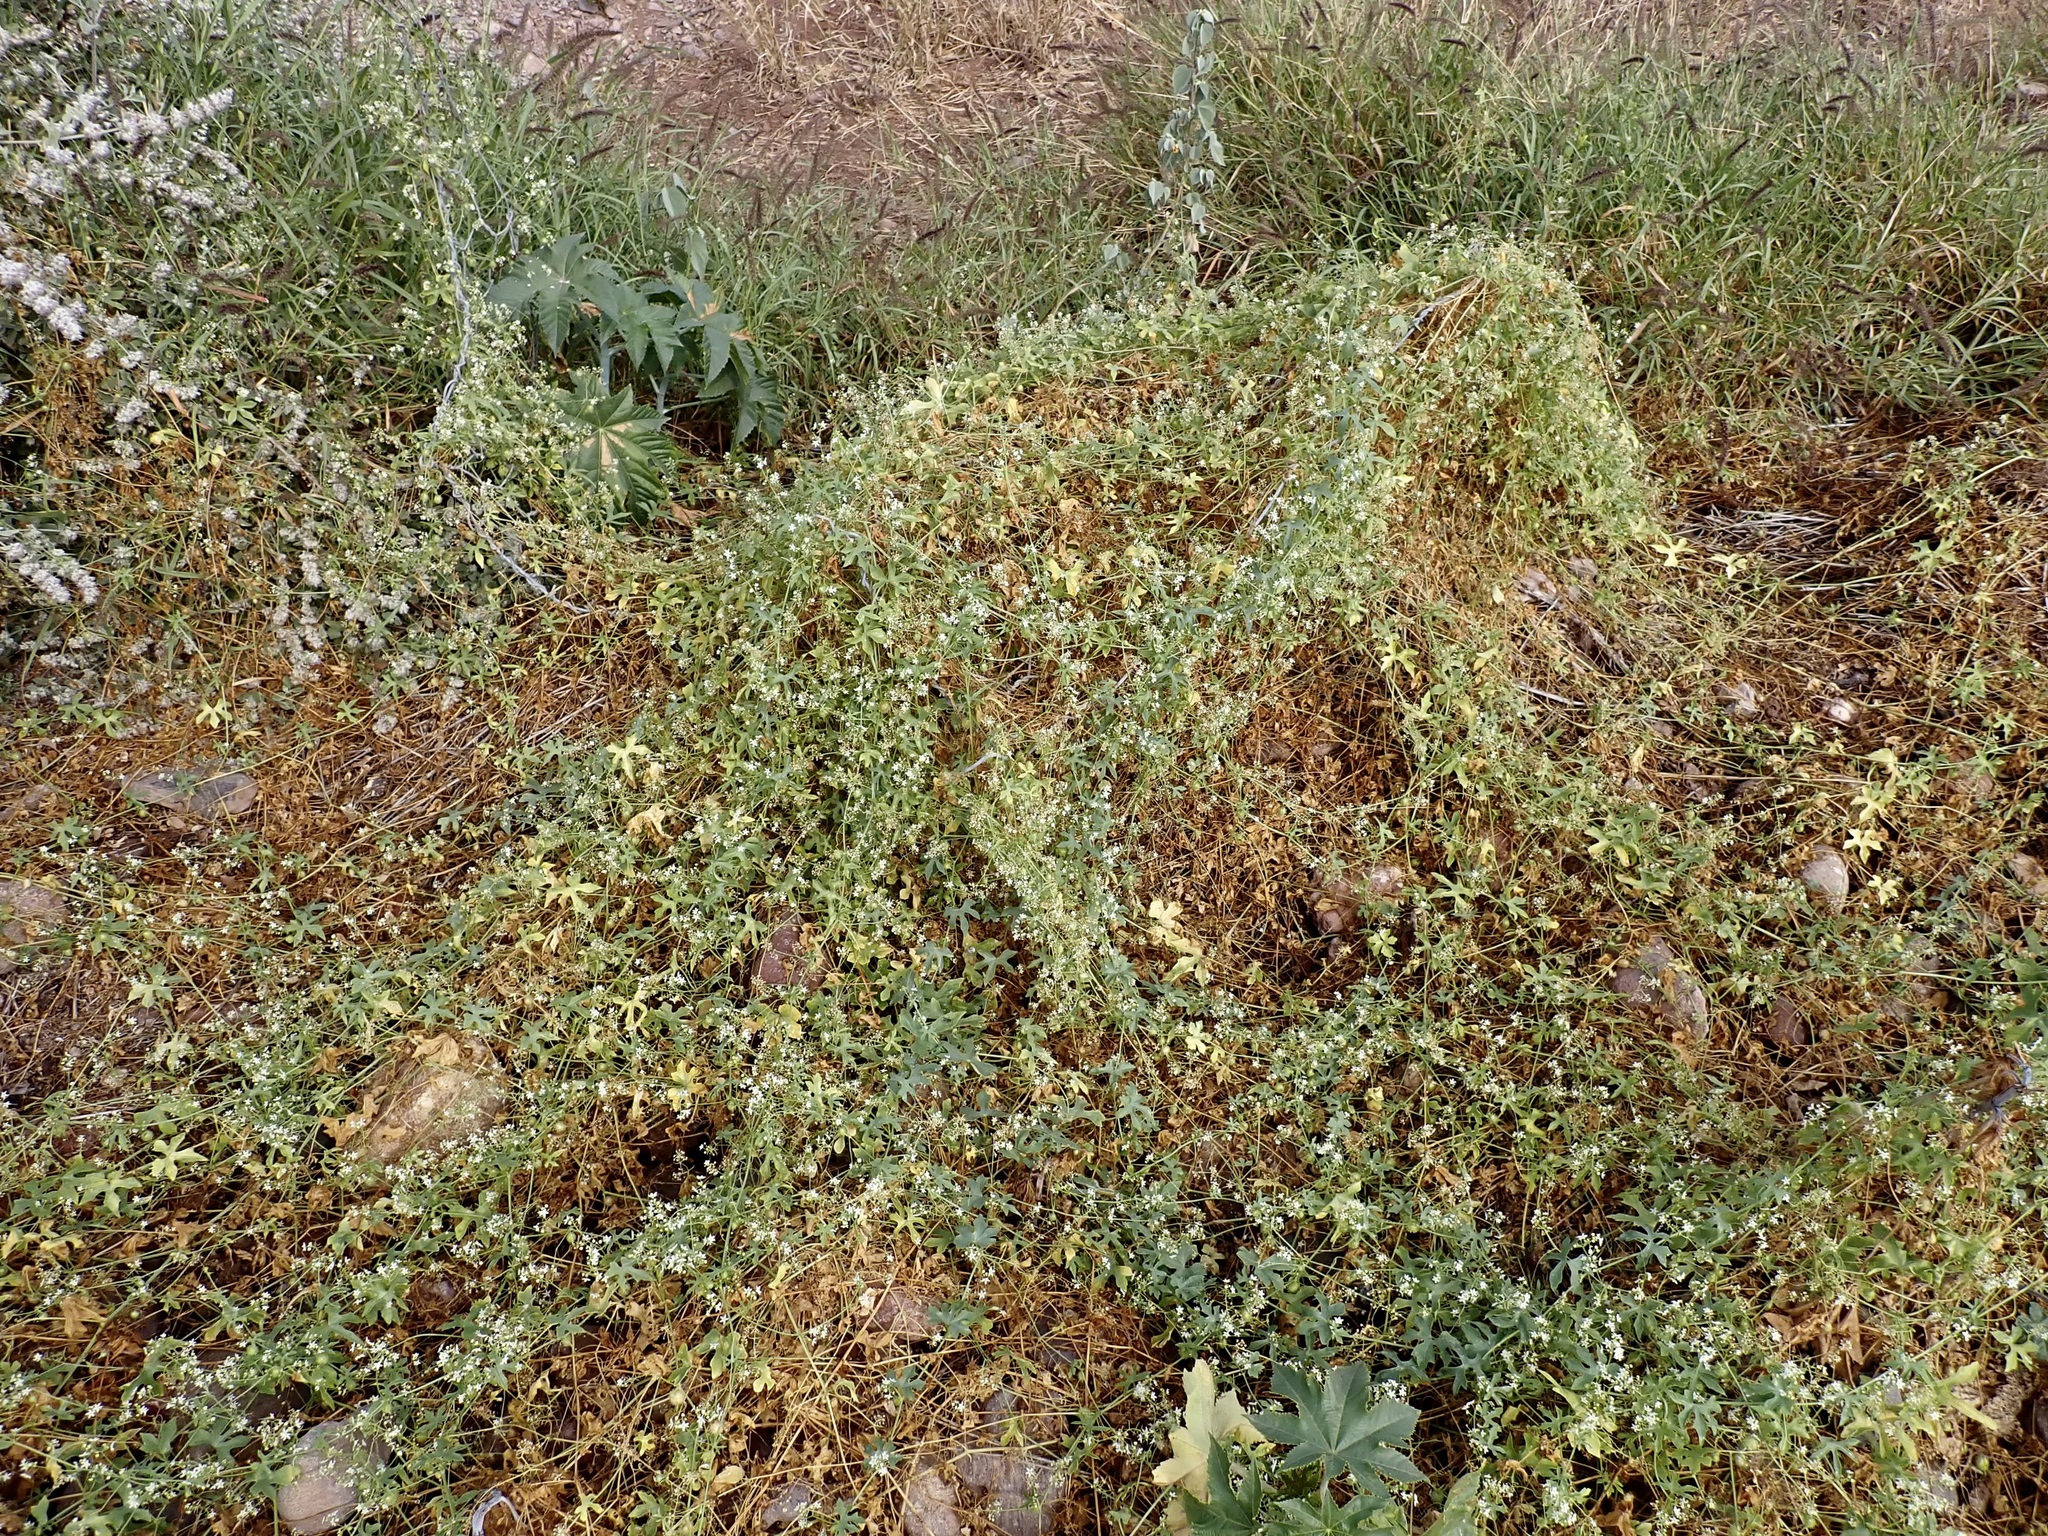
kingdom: Plantae
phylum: Tracheophyta
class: Magnoliopsida
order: Cucurbitales
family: Cucurbitaceae
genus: Echinopepon
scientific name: Echinopepon insularis
